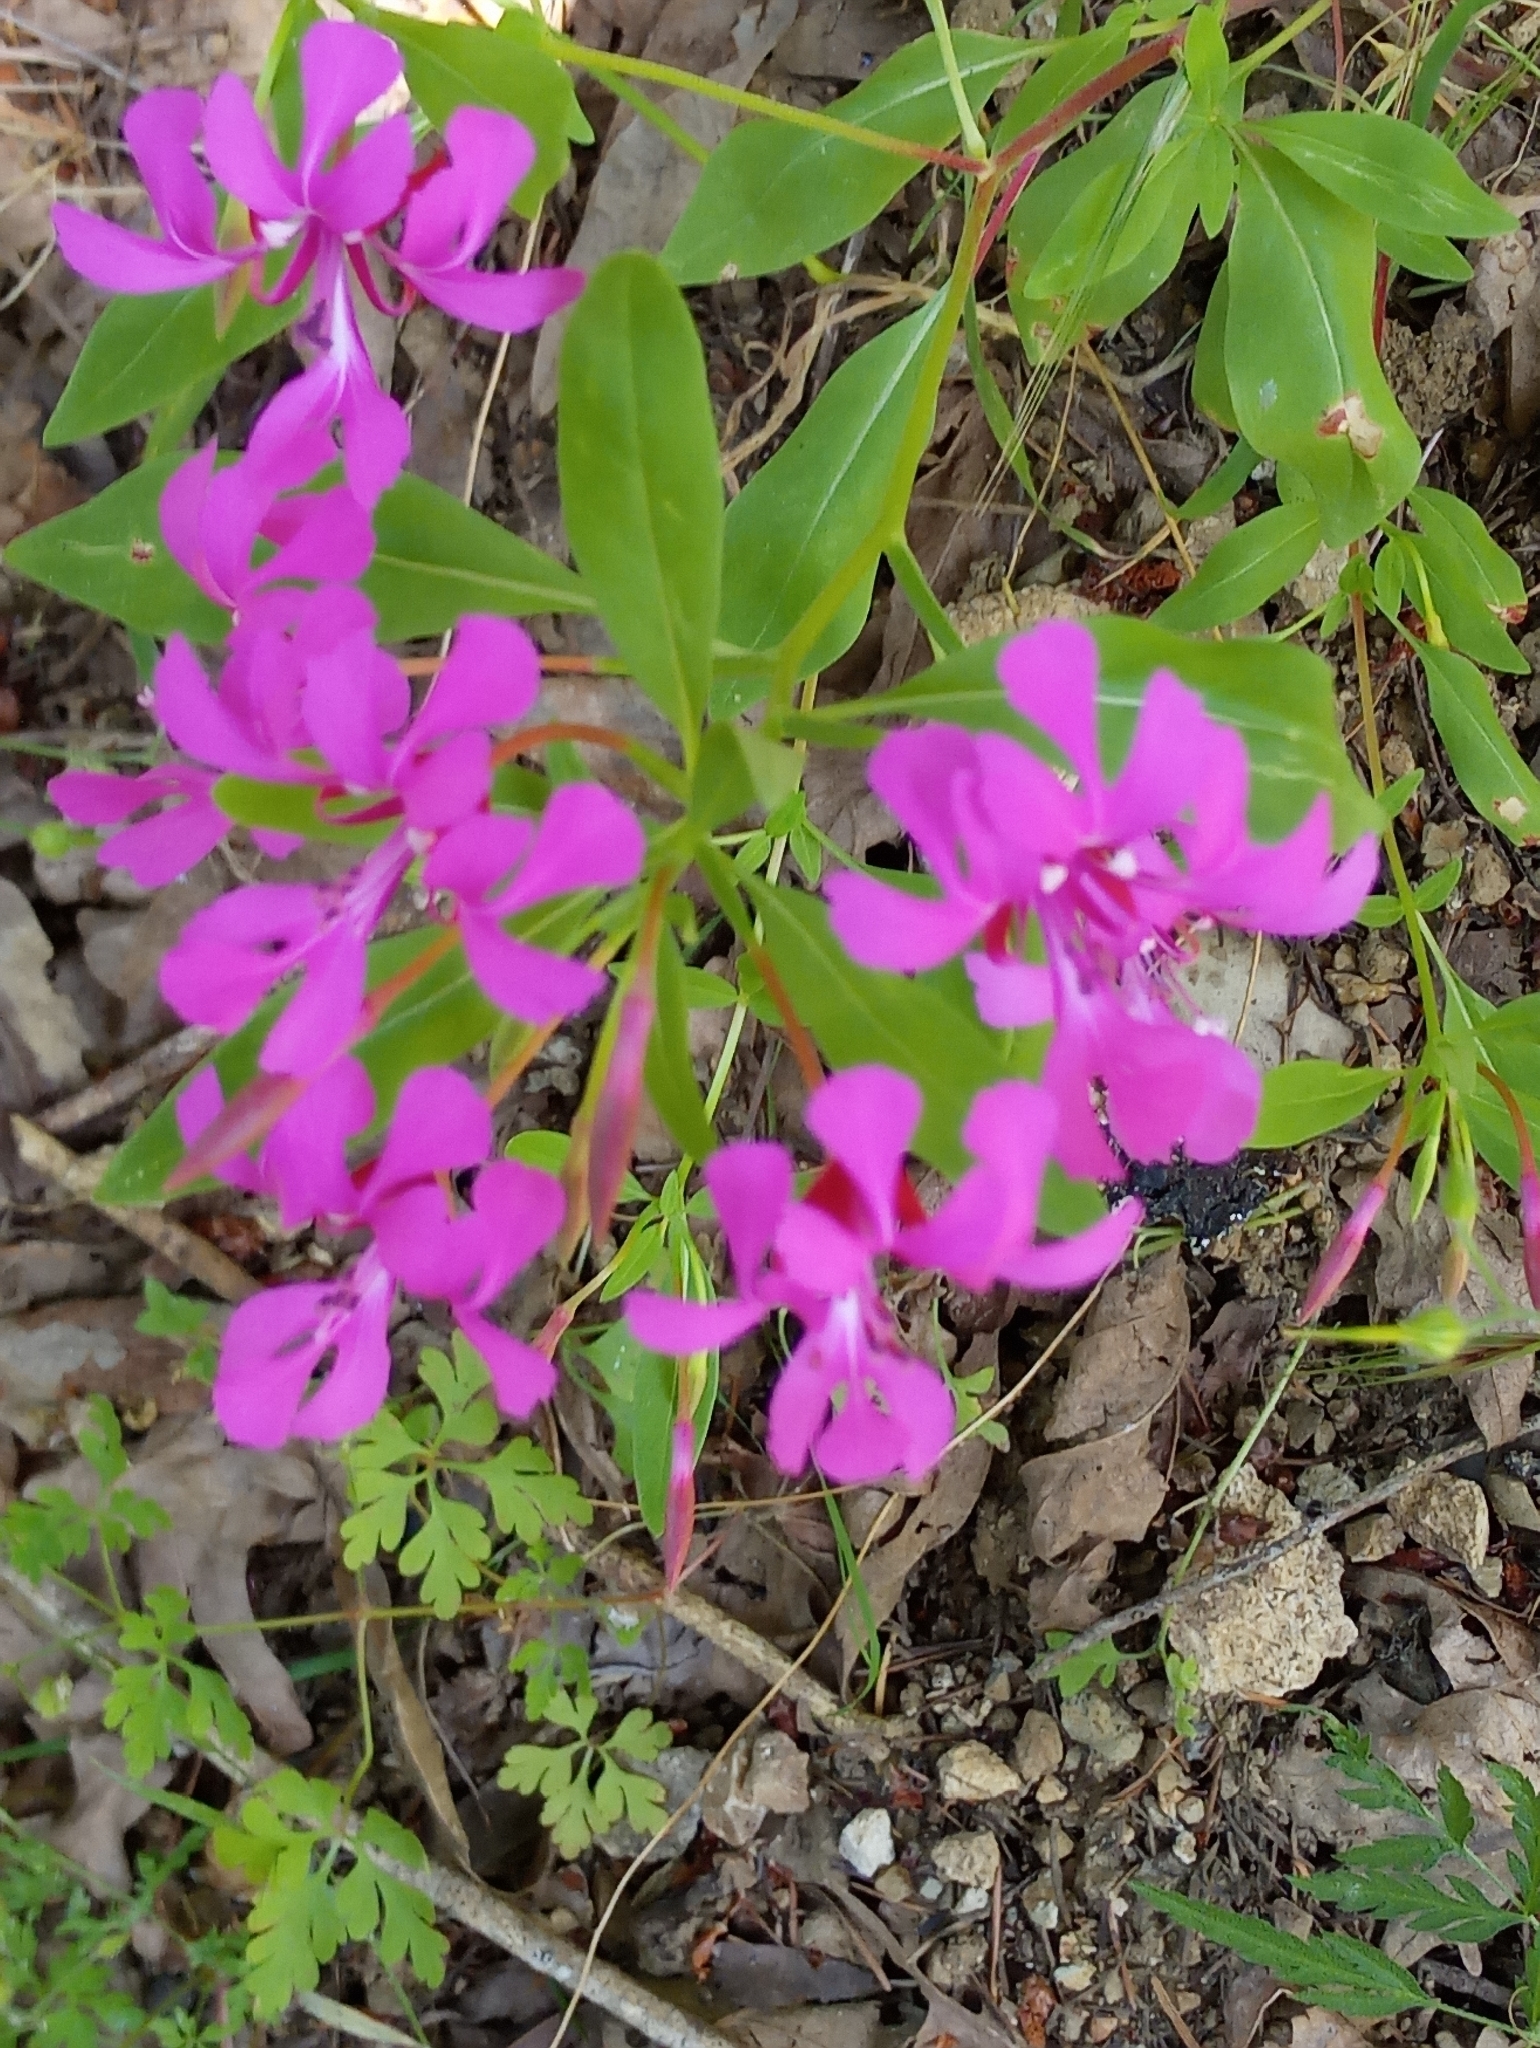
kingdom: Plantae
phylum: Tracheophyta
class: Magnoliopsida
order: Myrtales
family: Onagraceae
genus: Clarkia
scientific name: Clarkia concinna
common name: Red-ribbons
